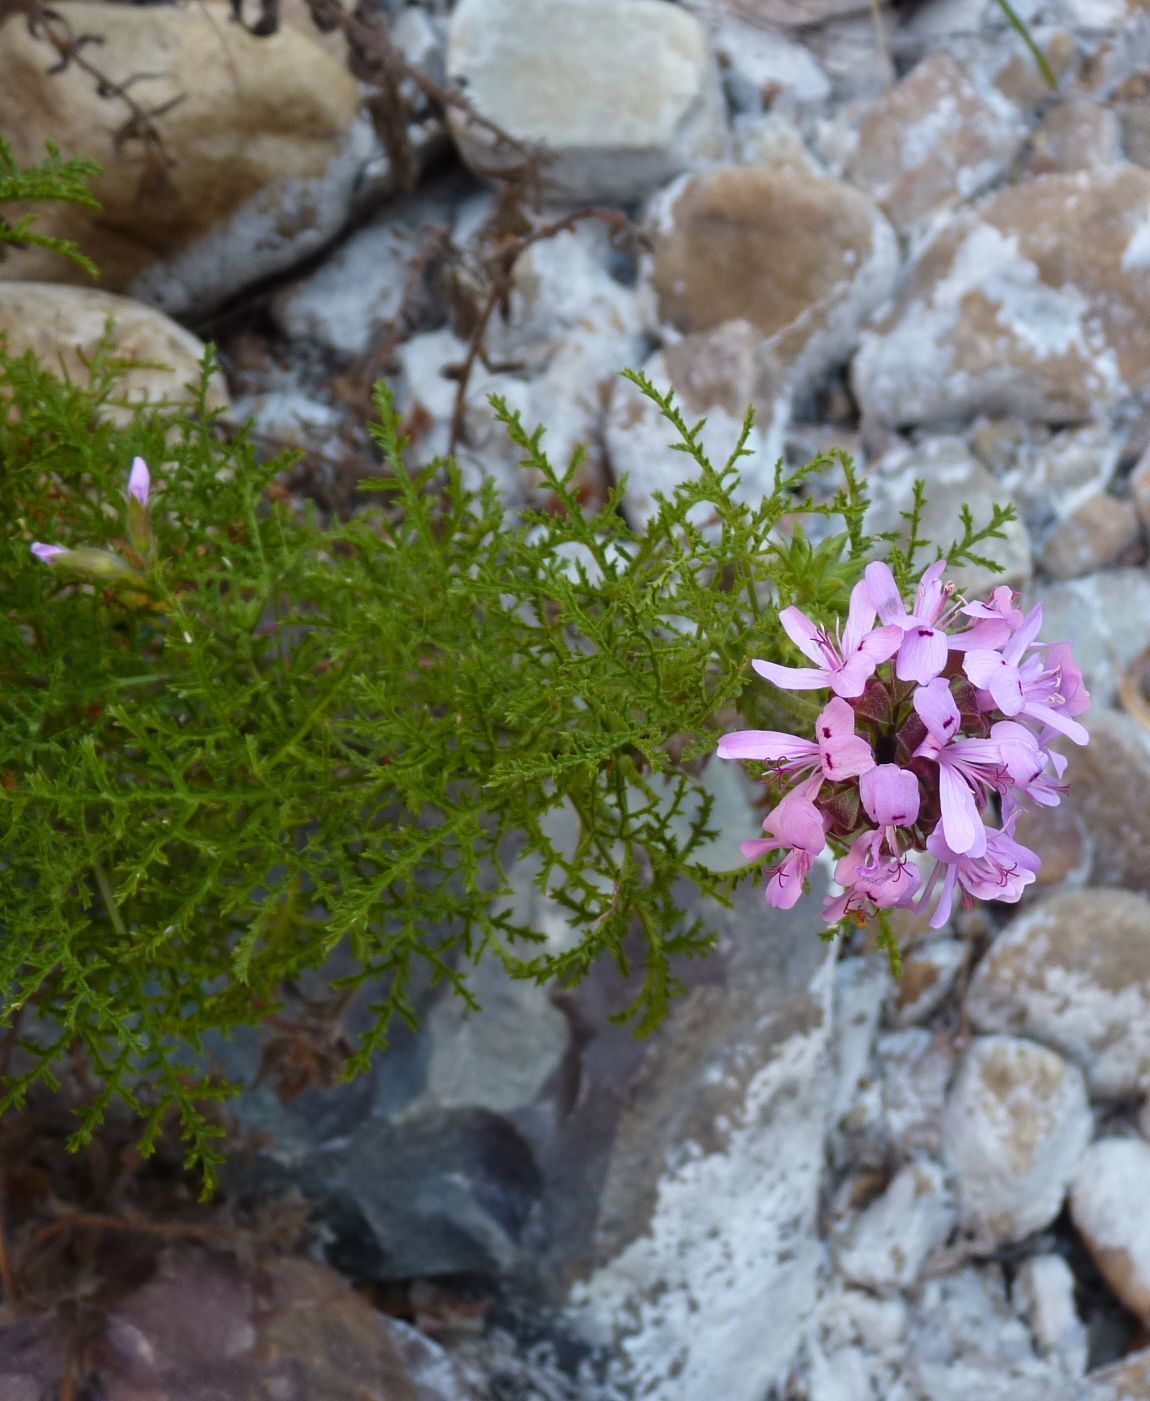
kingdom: Plantae
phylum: Tracheophyta
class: Magnoliopsida
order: Geraniales
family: Geraniaceae
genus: Pelargonium
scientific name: Pelargonium denticulatum
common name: Pine geranium
